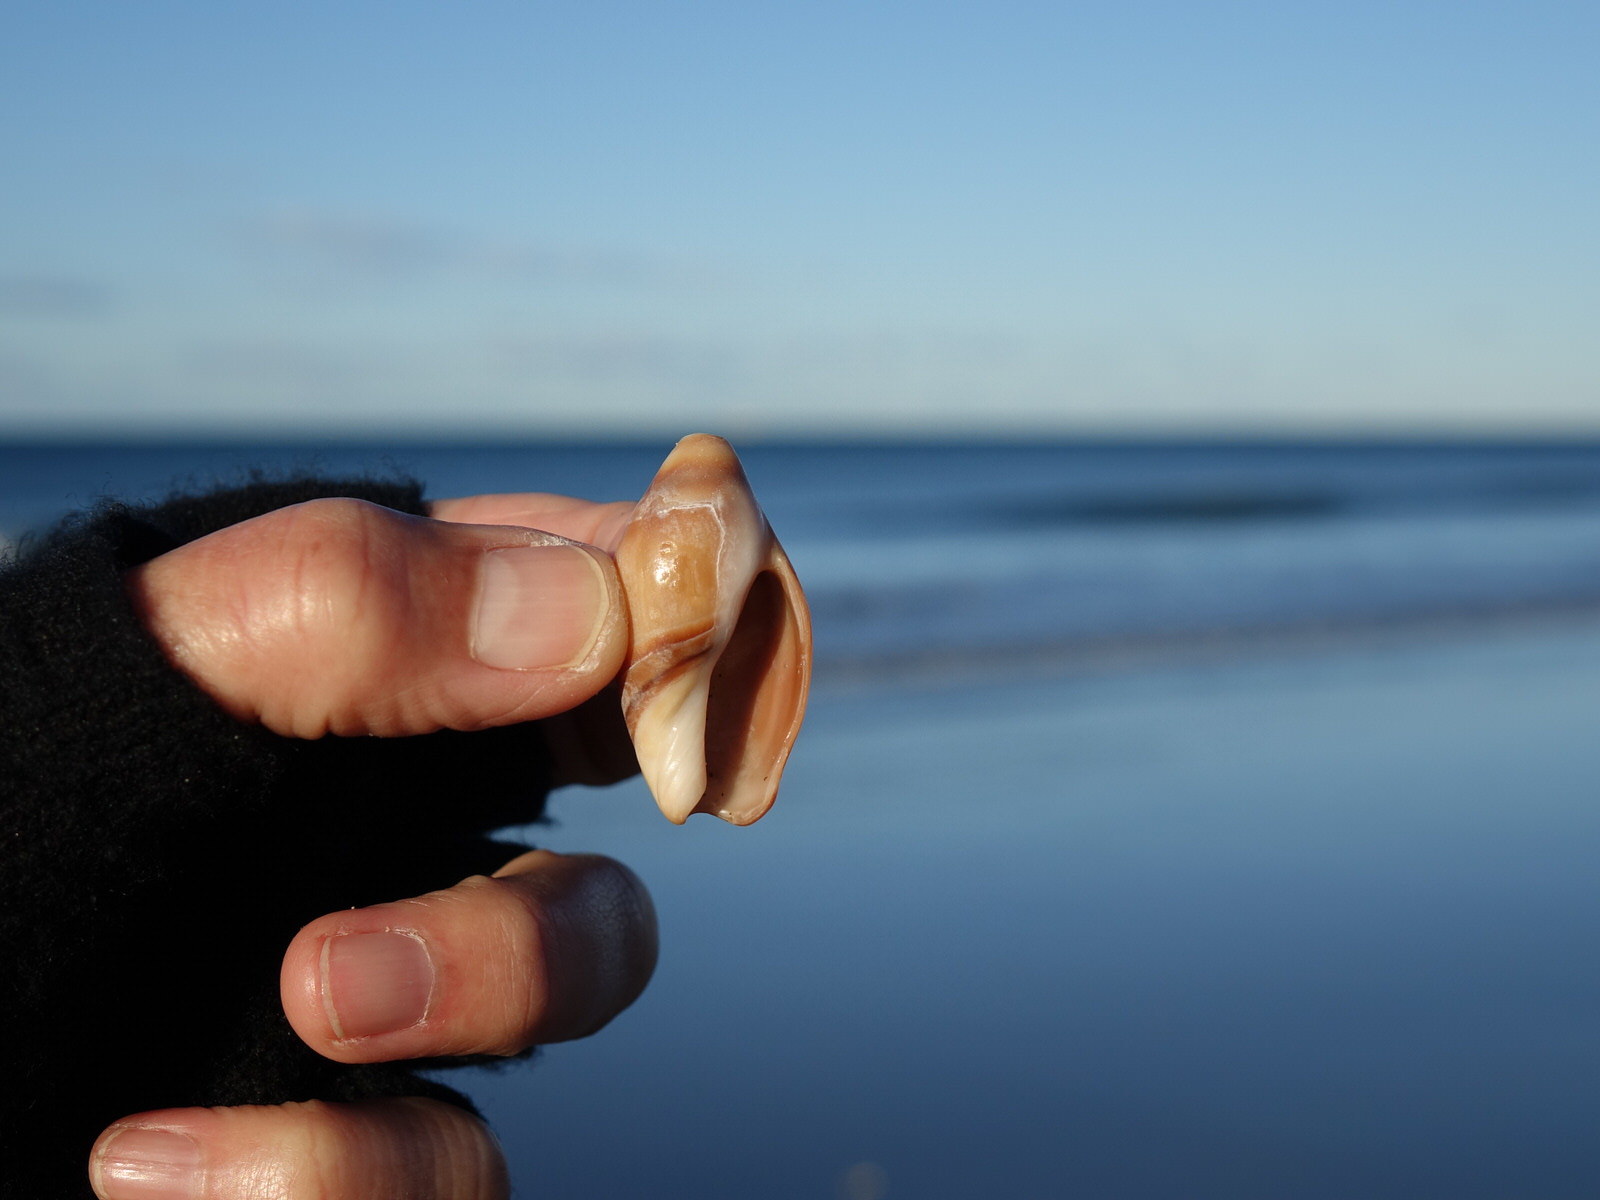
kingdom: Animalia
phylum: Mollusca
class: Gastropoda
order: Neogastropoda
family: Ancillariidae
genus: Amalda
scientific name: Amalda australis
